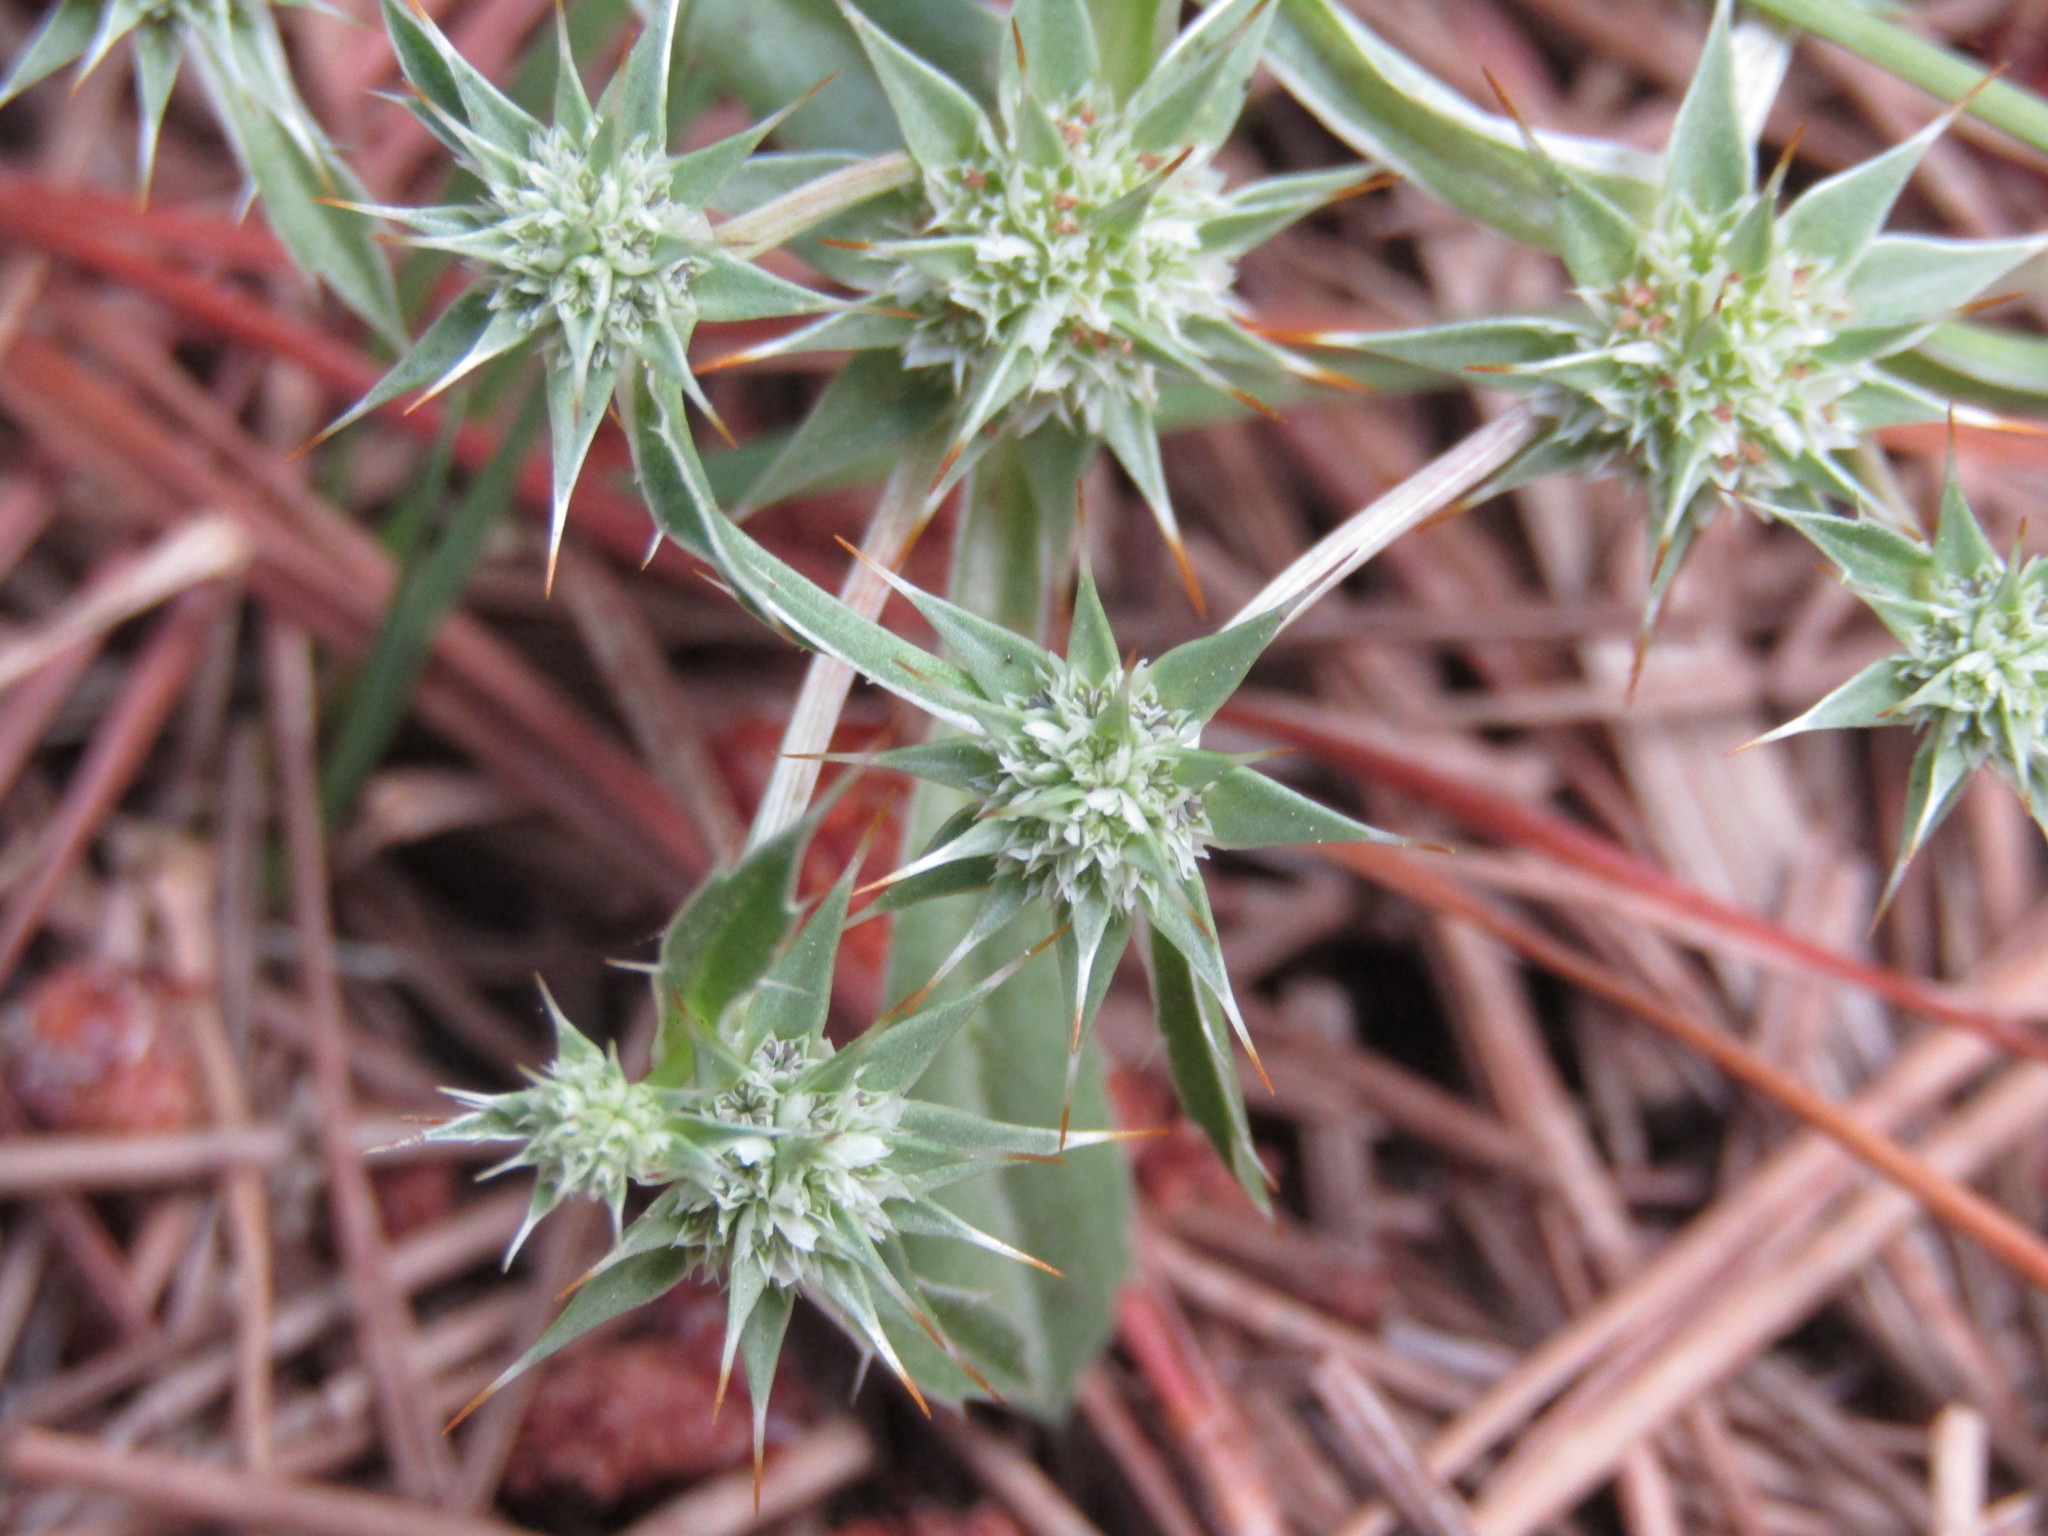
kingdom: Plantae
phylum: Tracheophyta
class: Magnoliopsida
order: Apiales
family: Apiaceae
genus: Eryngium
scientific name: Eryngium armatum
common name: Coyote thistle
